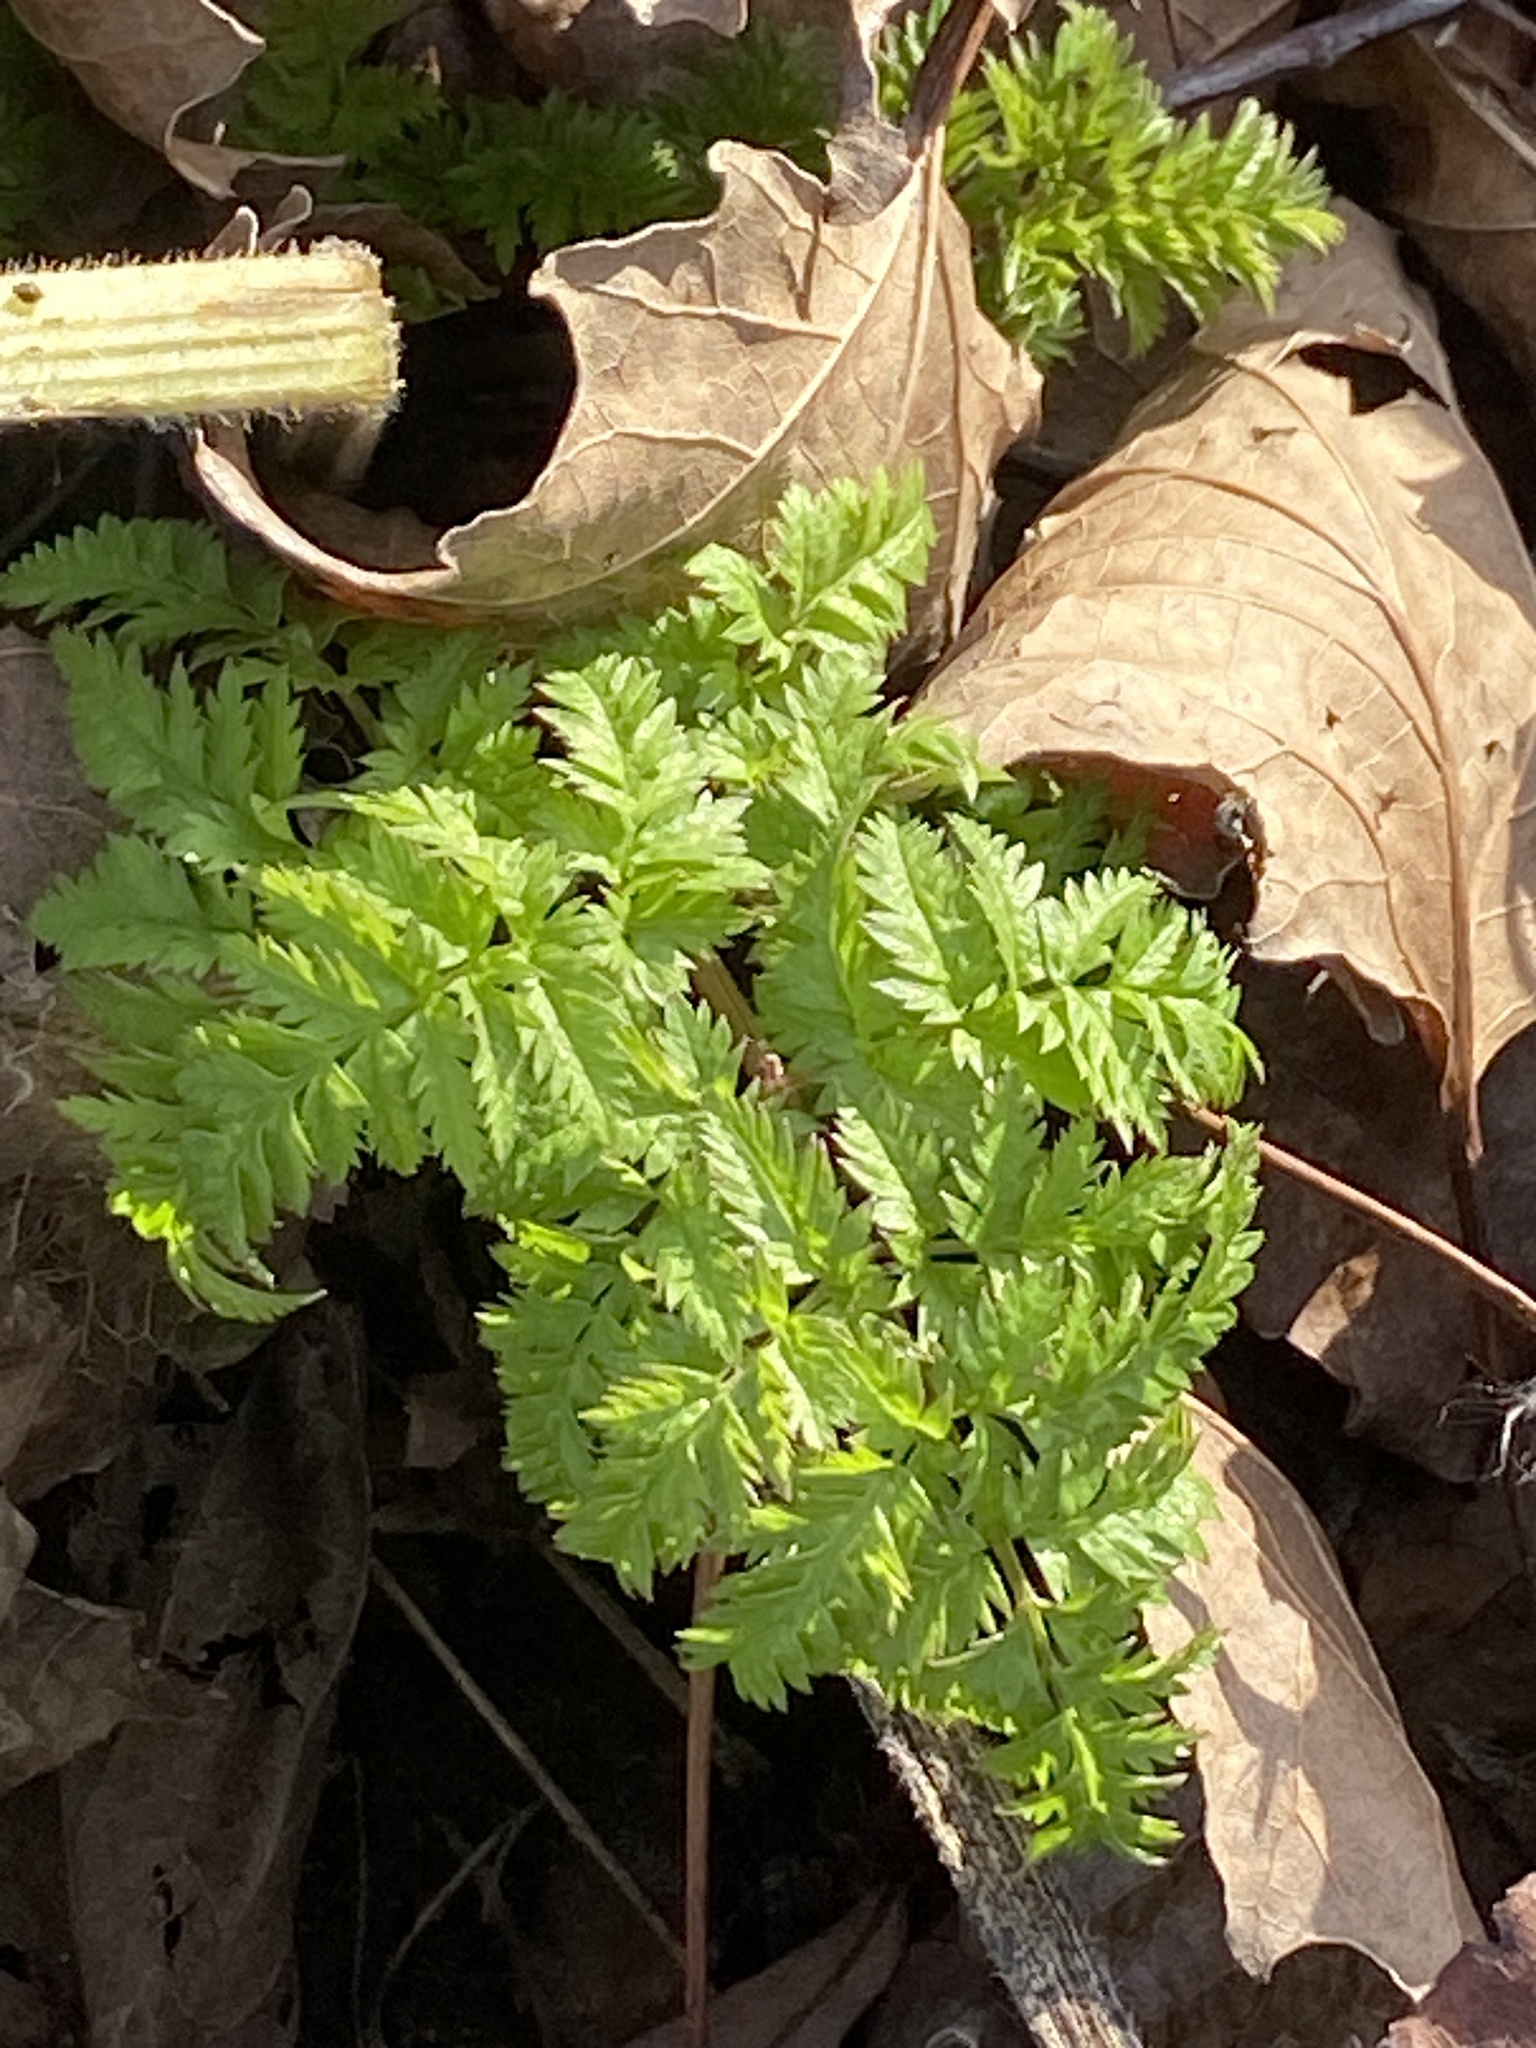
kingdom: Plantae
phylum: Tracheophyta
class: Magnoliopsida
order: Apiales
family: Apiaceae
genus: Anthriscus
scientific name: Anthriscus sylvestris
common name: Cow parsley
